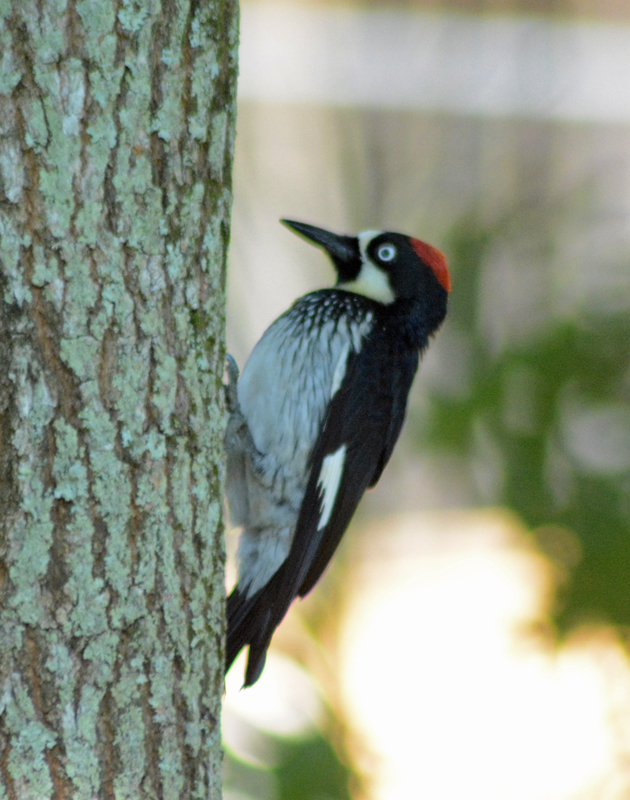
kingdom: Animalia
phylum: Chordata
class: Aves
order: Piciformes
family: Picidae
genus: Melanerpes
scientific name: Melanerpes formicivorus
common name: Acorn woodpecker
